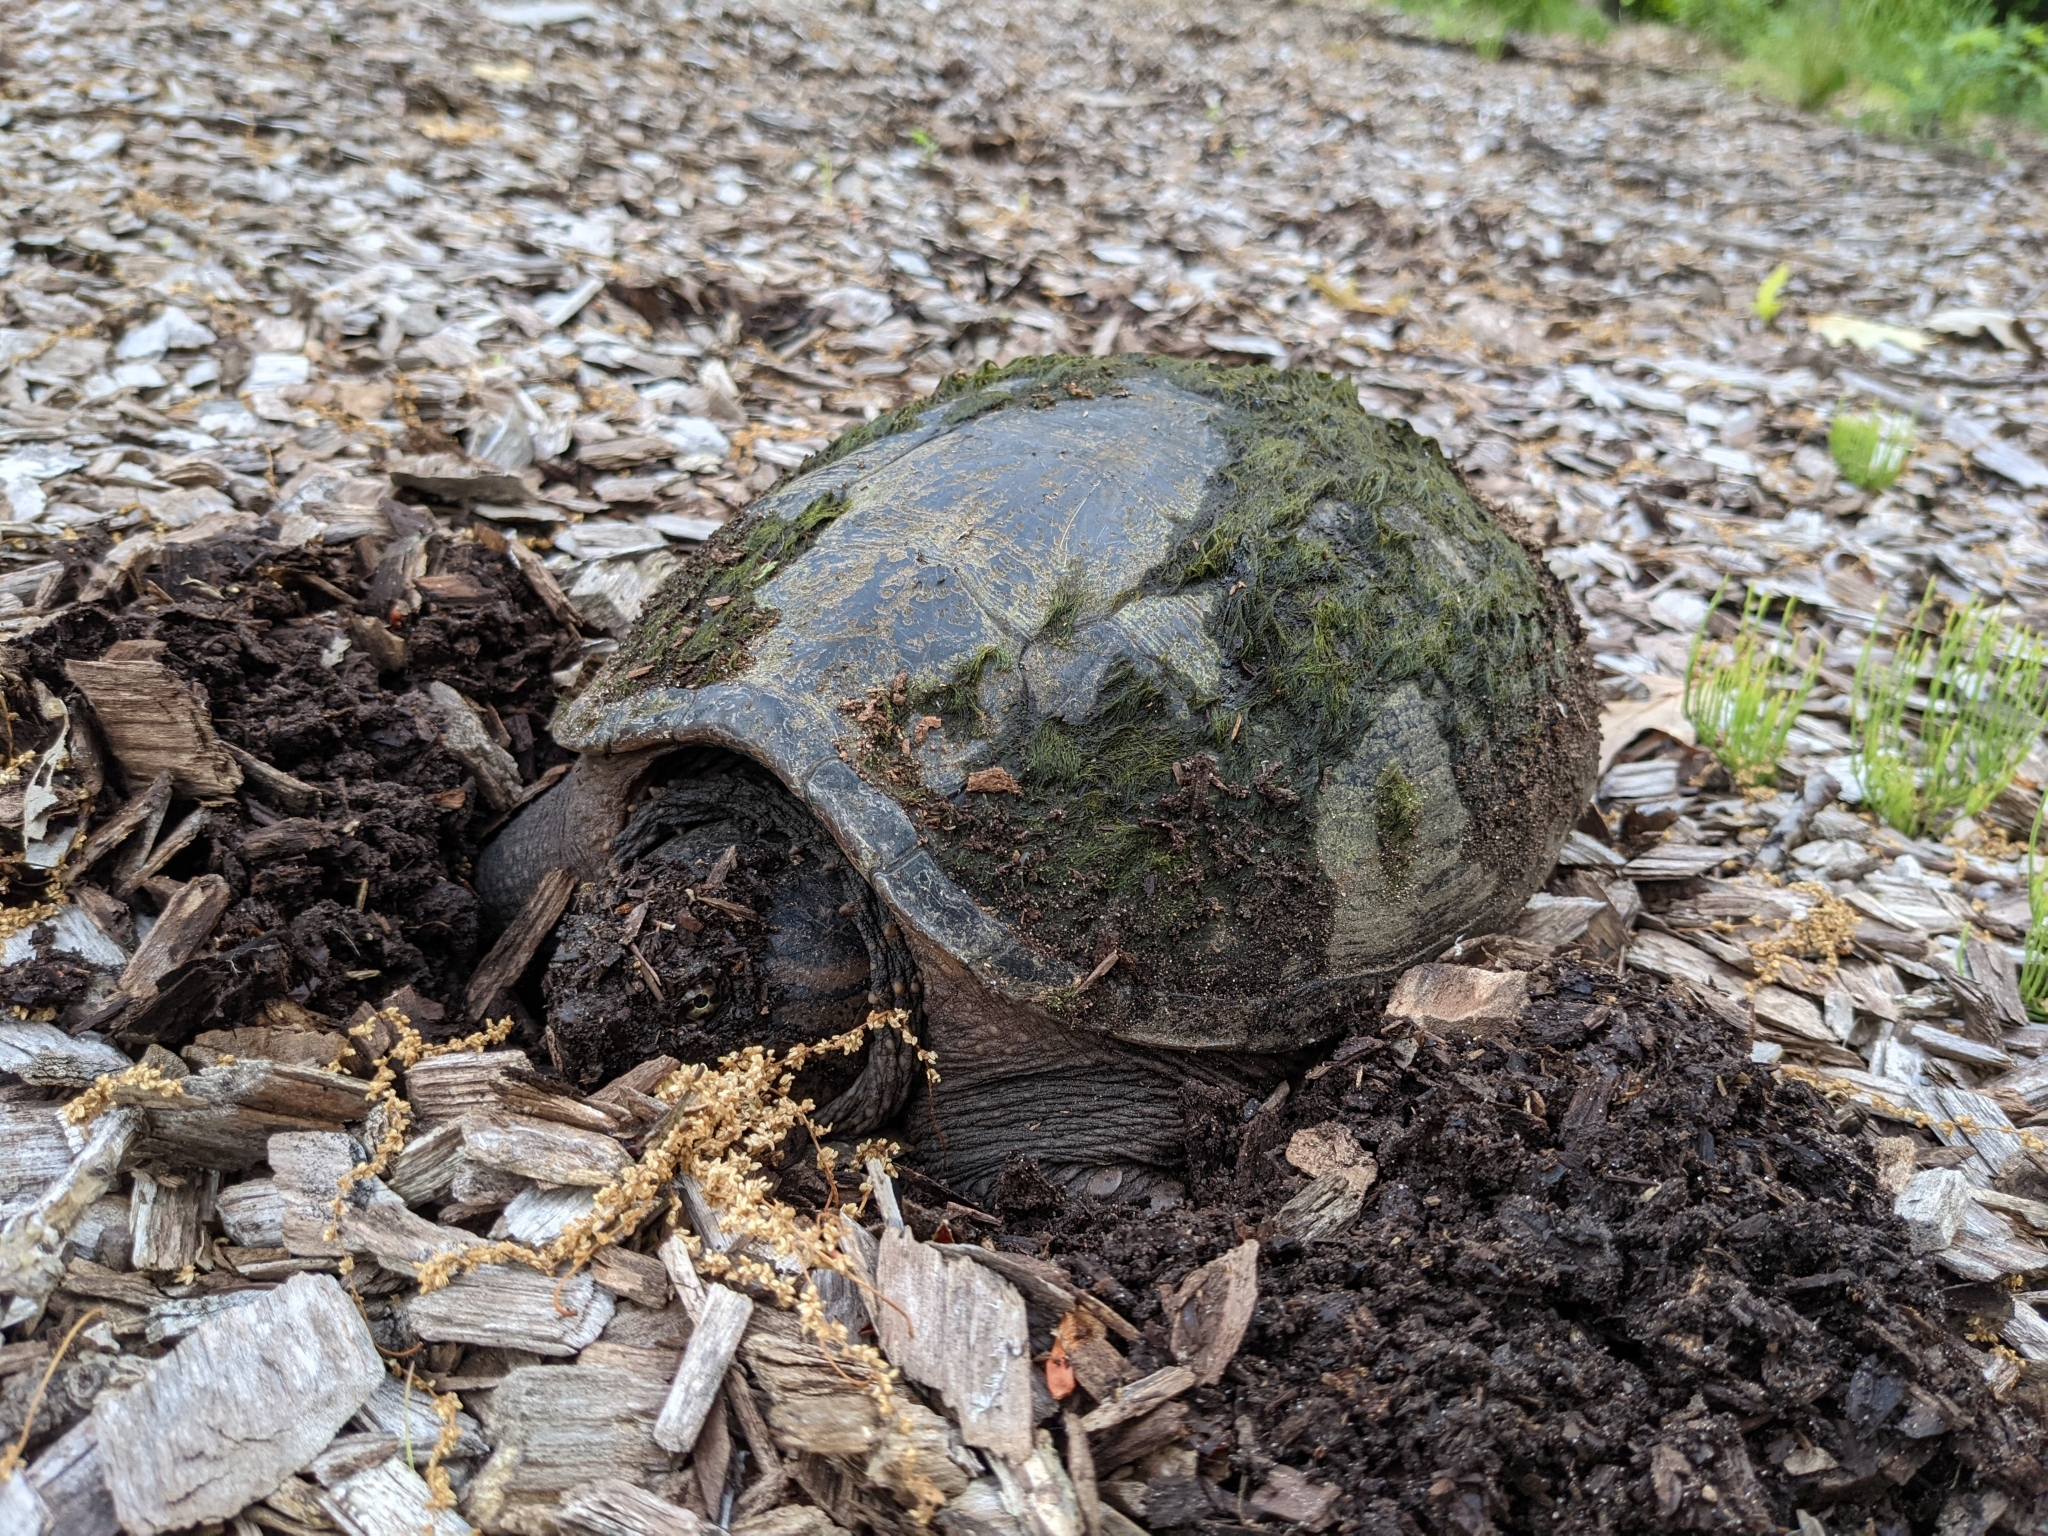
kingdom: Animalia
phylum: Chordata
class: Testudines
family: Chelydridae
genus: Chelydra
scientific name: Chelydra serpentina
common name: Common snapping turtle
